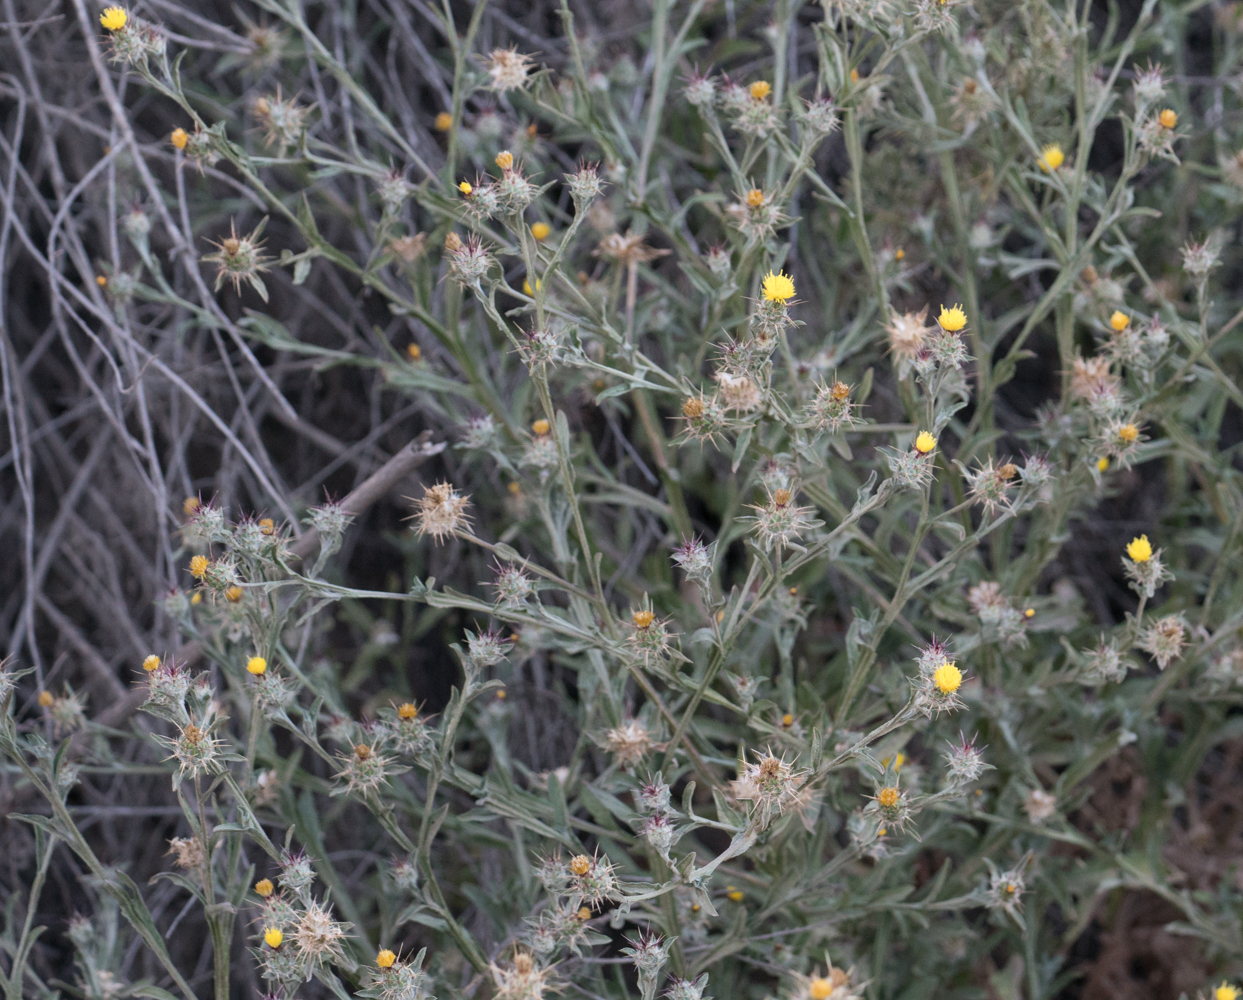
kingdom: Plantae
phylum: Tracheophyta
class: Magnoliopsida
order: Asterales
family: Asteraceae
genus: Centaurea
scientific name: Centaurea melitensis
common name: Maltese star-thistle
